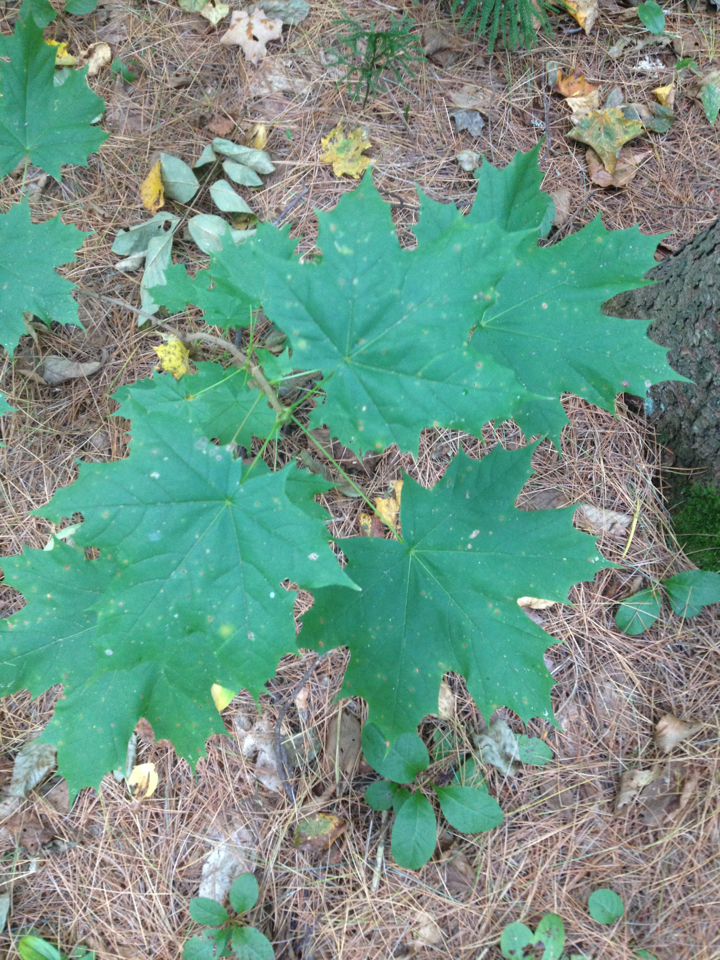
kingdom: Plantae
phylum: Tracheophyta
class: Magnoliopsida
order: Sapindales
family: Sapindaceae
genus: Acer
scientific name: Acer platanoides
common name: Norway maple
